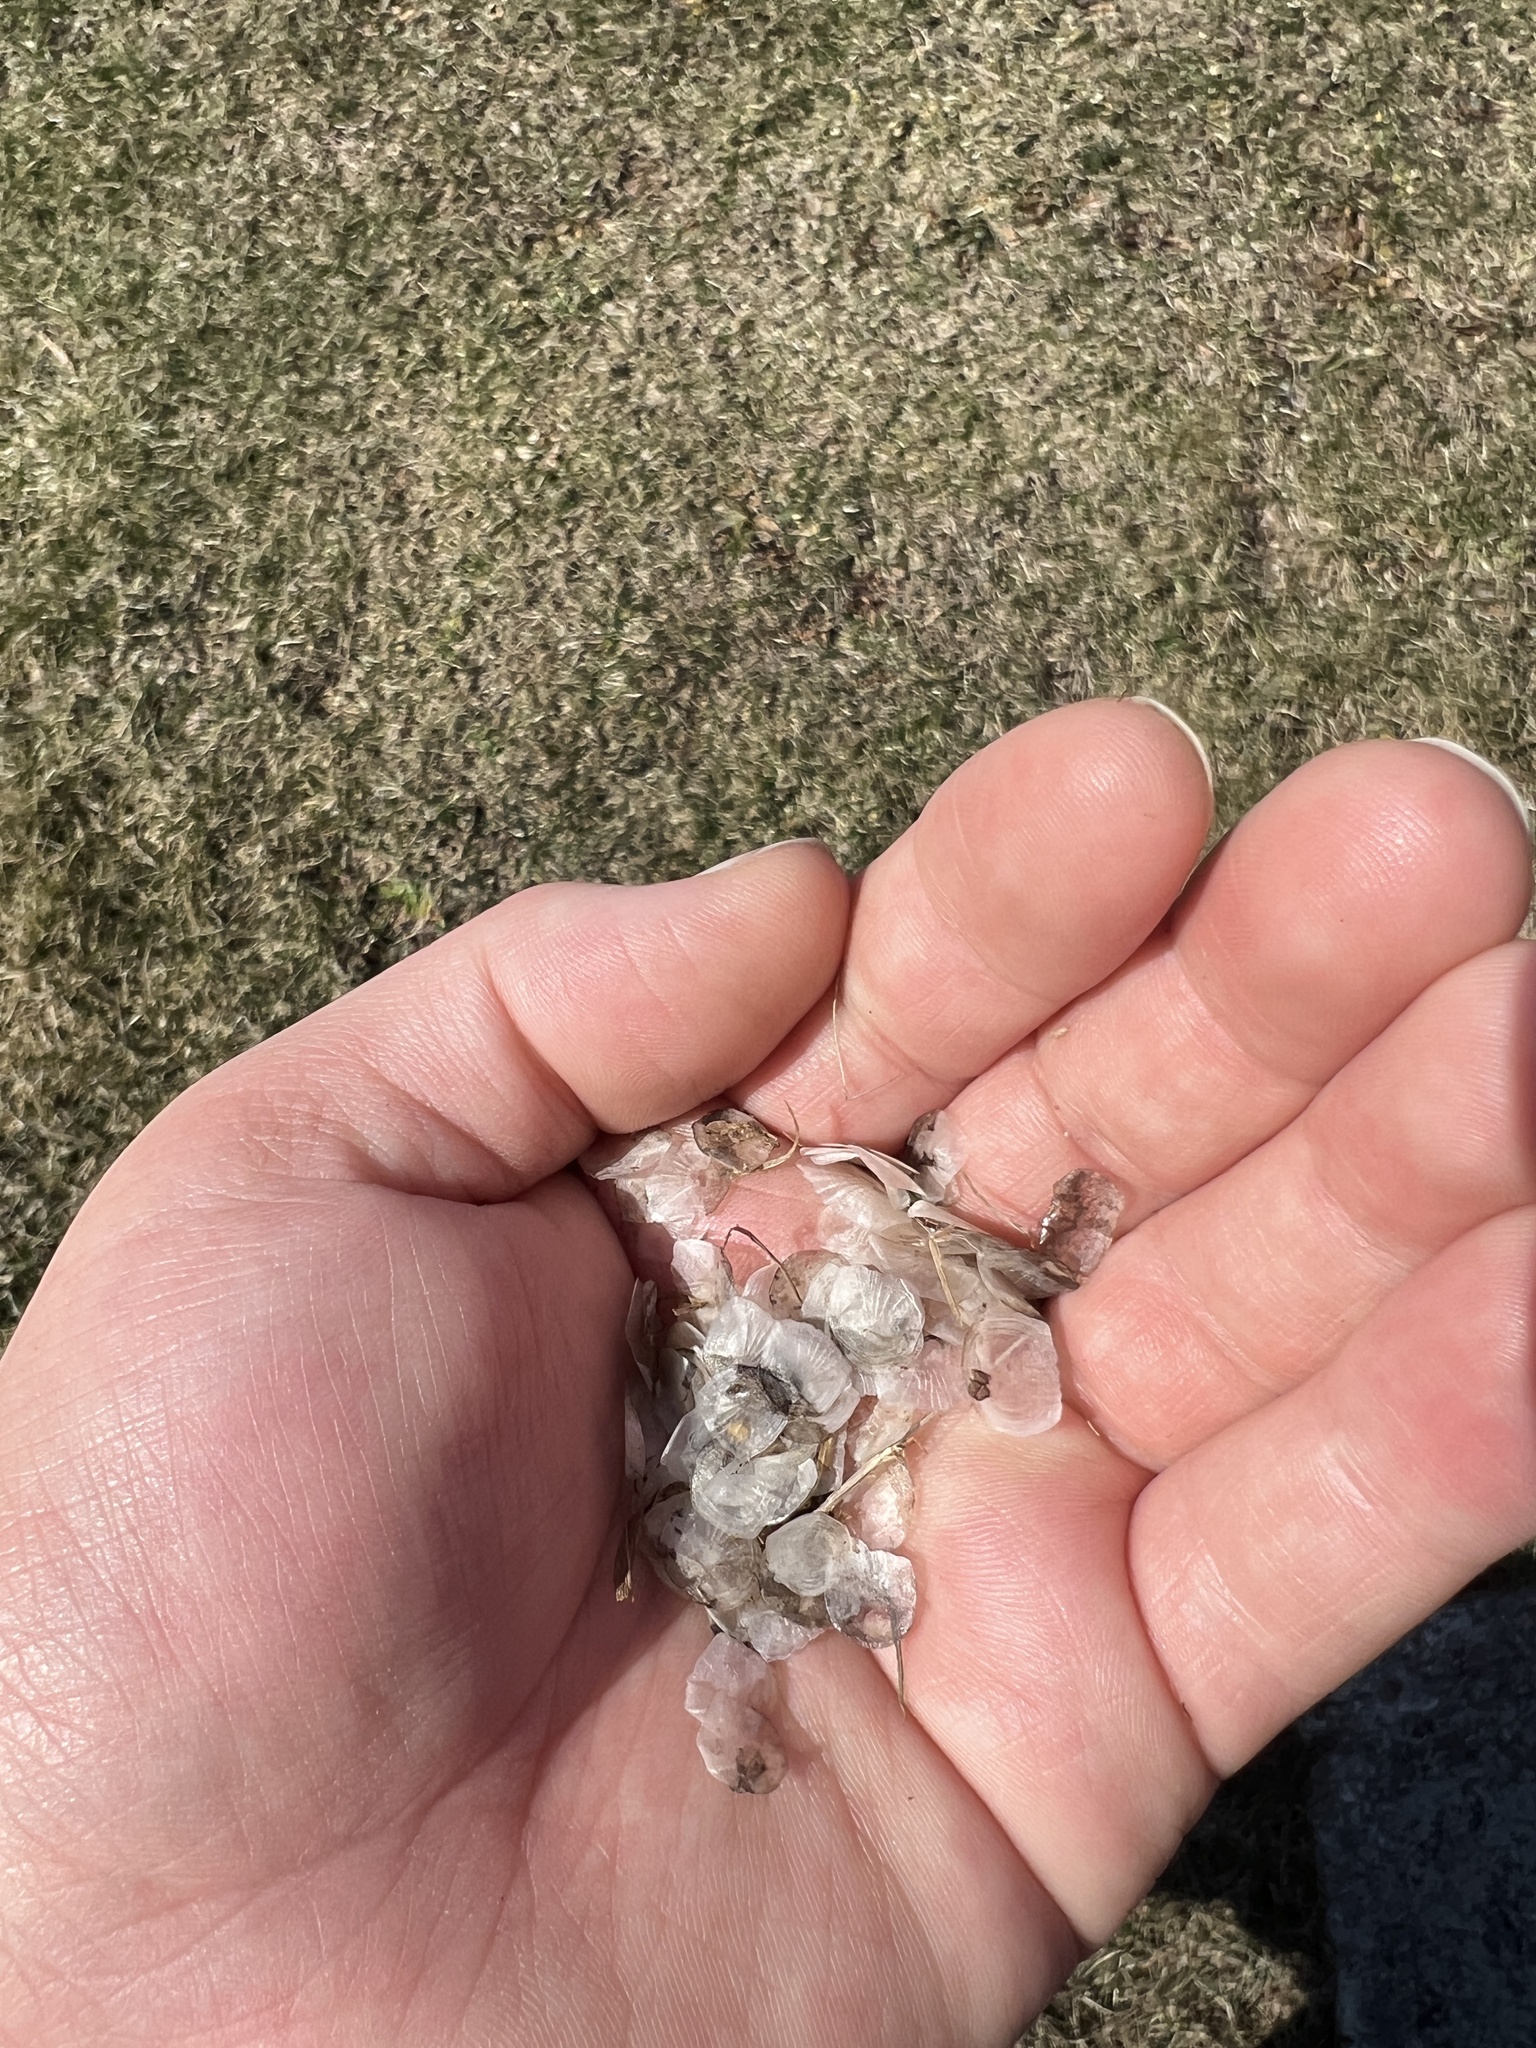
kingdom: Animalia
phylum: Chordata
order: Perciformes
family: Centrarchidae
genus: Micropterus
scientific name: Micropterus
